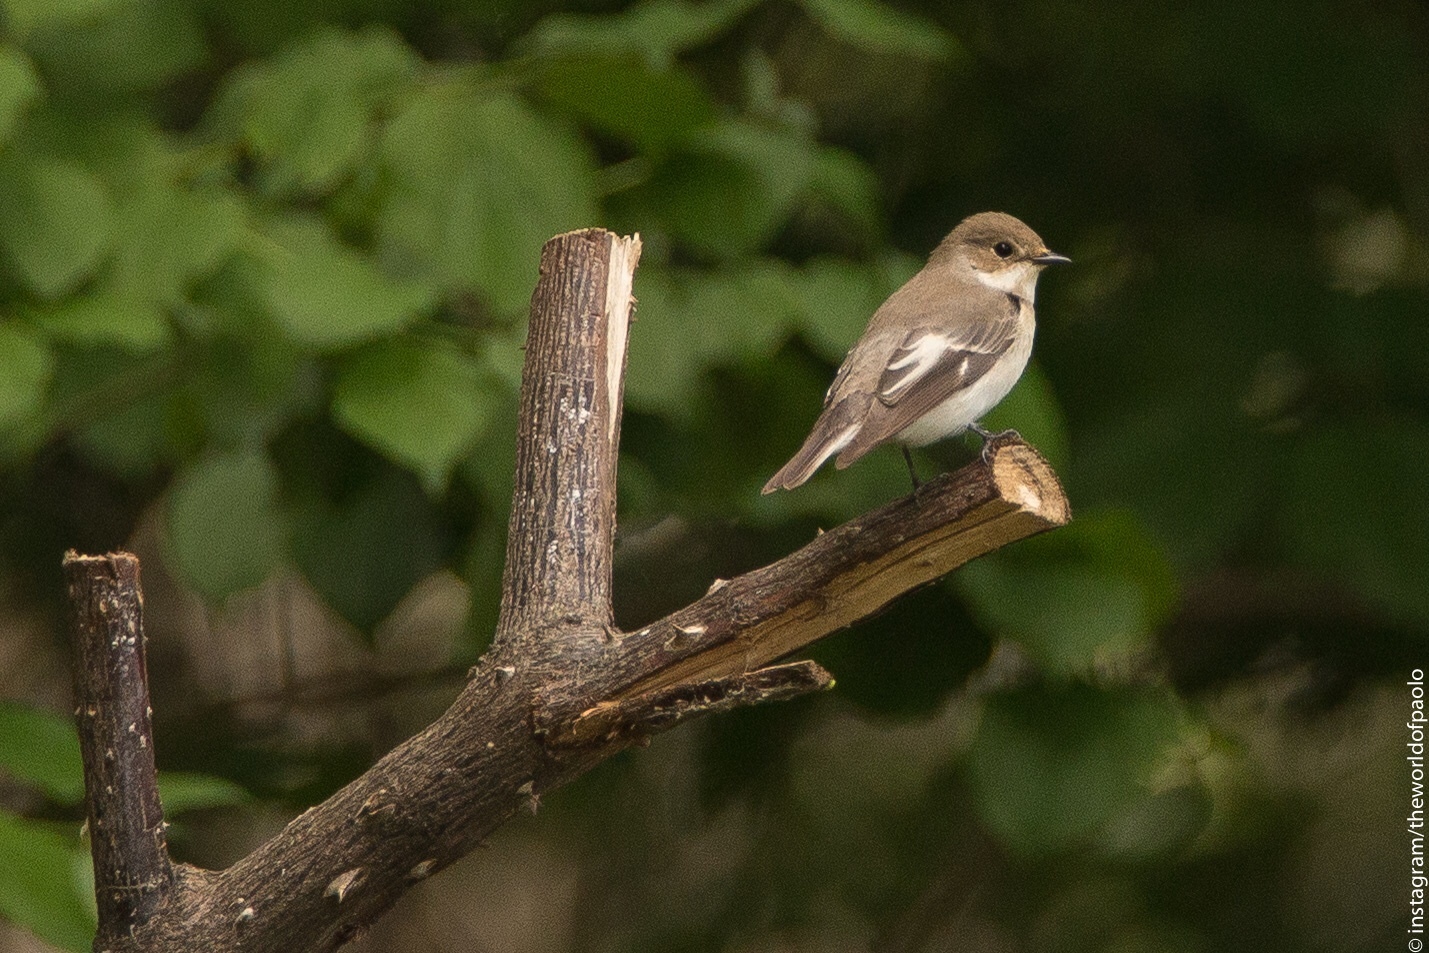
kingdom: Animalia
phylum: Chordata
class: Aves
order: Passeriformes
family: Muscicapidae
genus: Ficedula
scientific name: Ficedula hypoleuca
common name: European pied flycatcher
